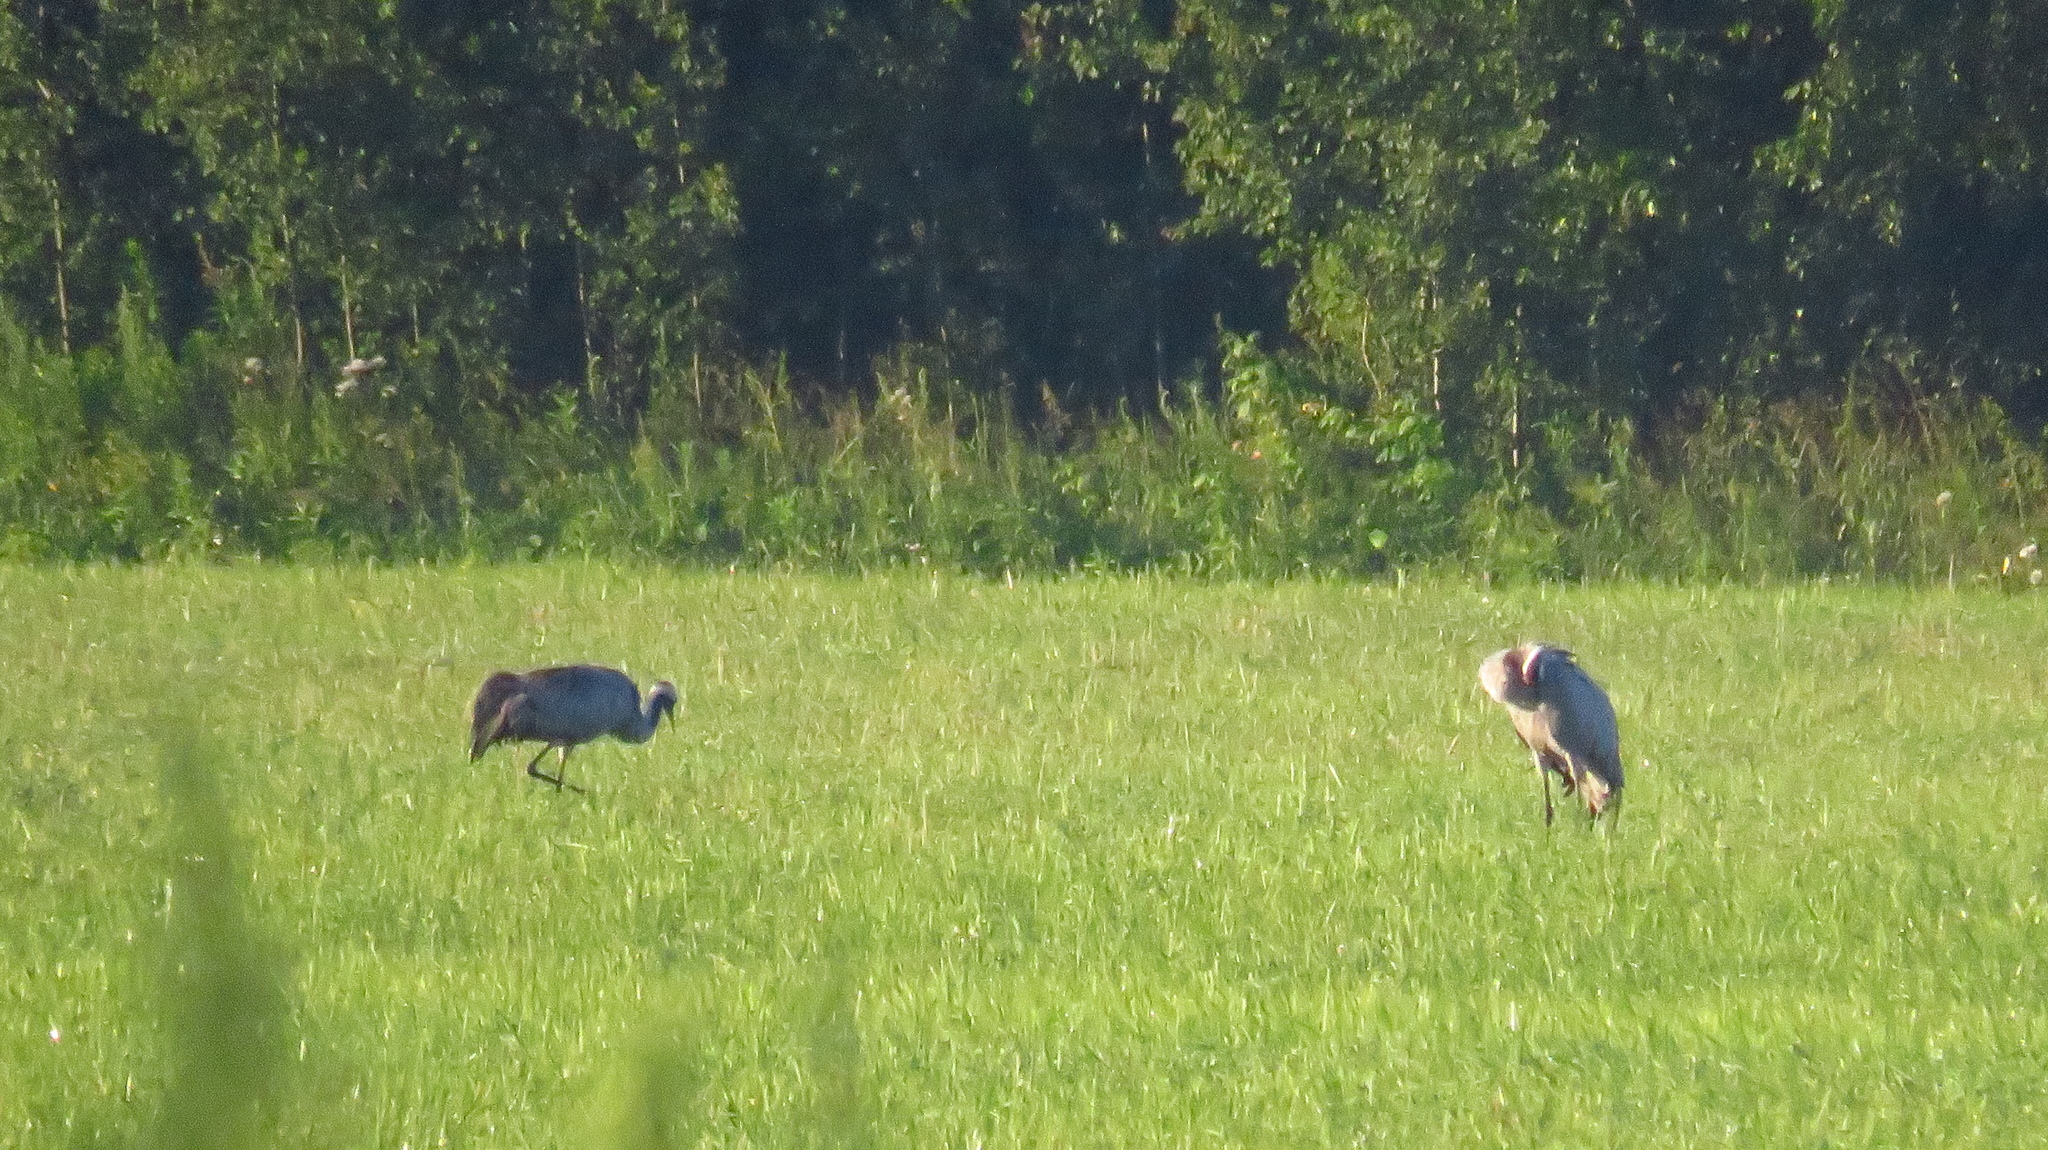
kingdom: Animalia
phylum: Chordata
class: Aves
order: Gruiformes
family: Gruidae
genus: Grus
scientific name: Grus grus
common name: Common crane
